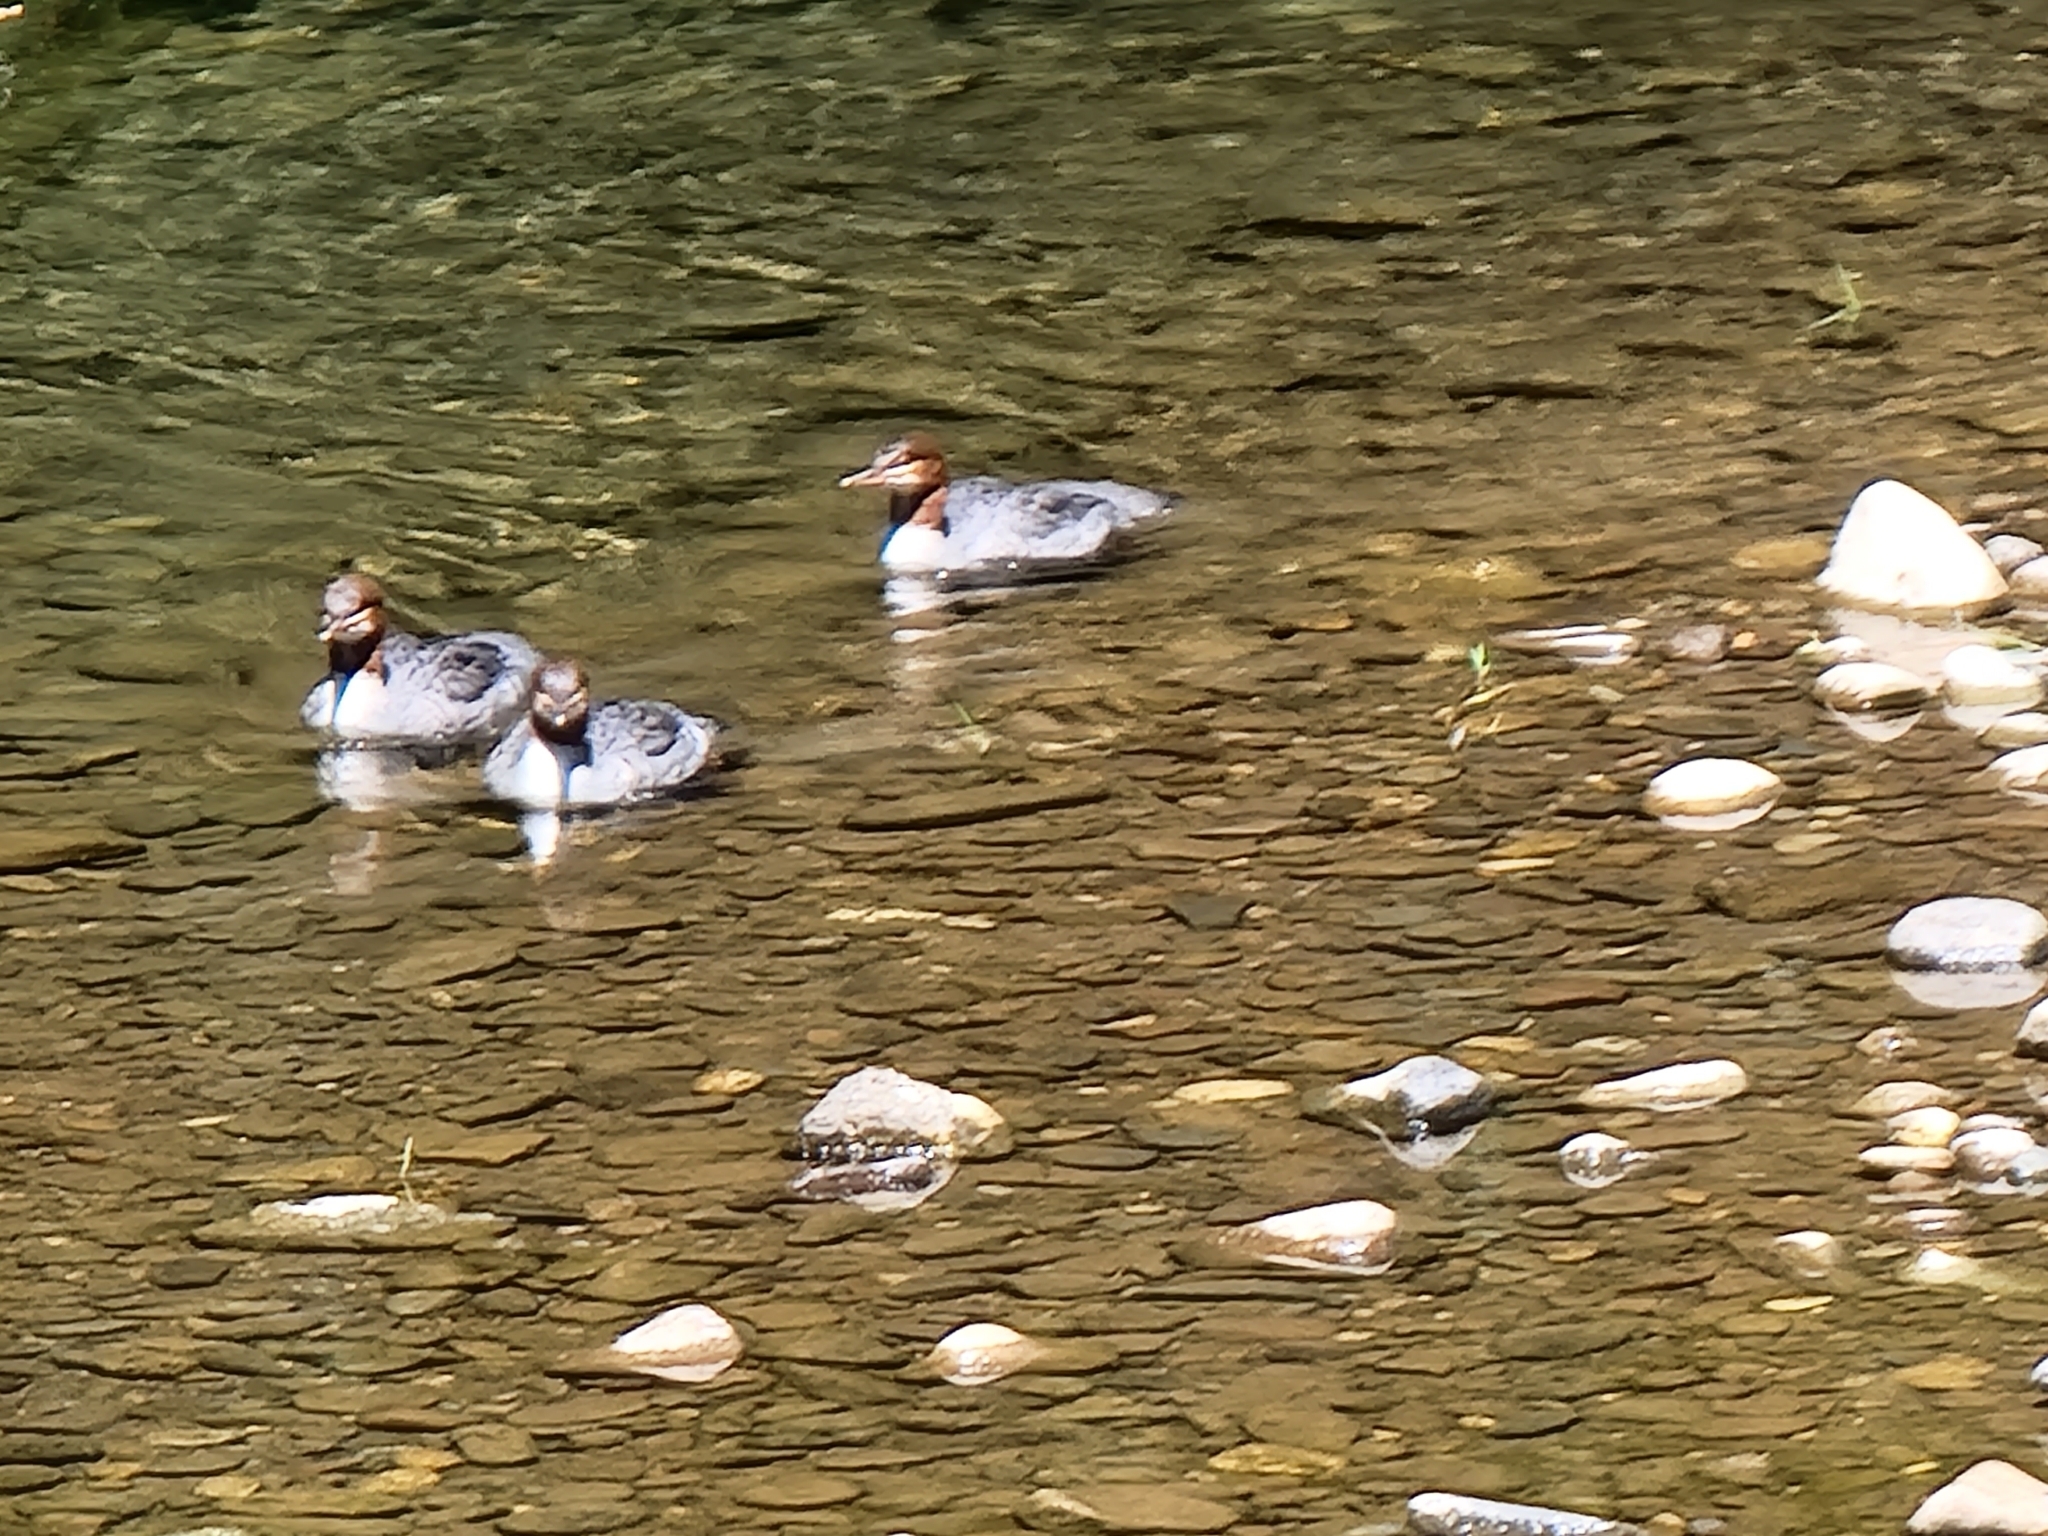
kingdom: Animalia
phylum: Chordata
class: Aves
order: Anseriformes
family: Anatidae
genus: Mergus
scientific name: Mergus merganser
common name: Common merganser
